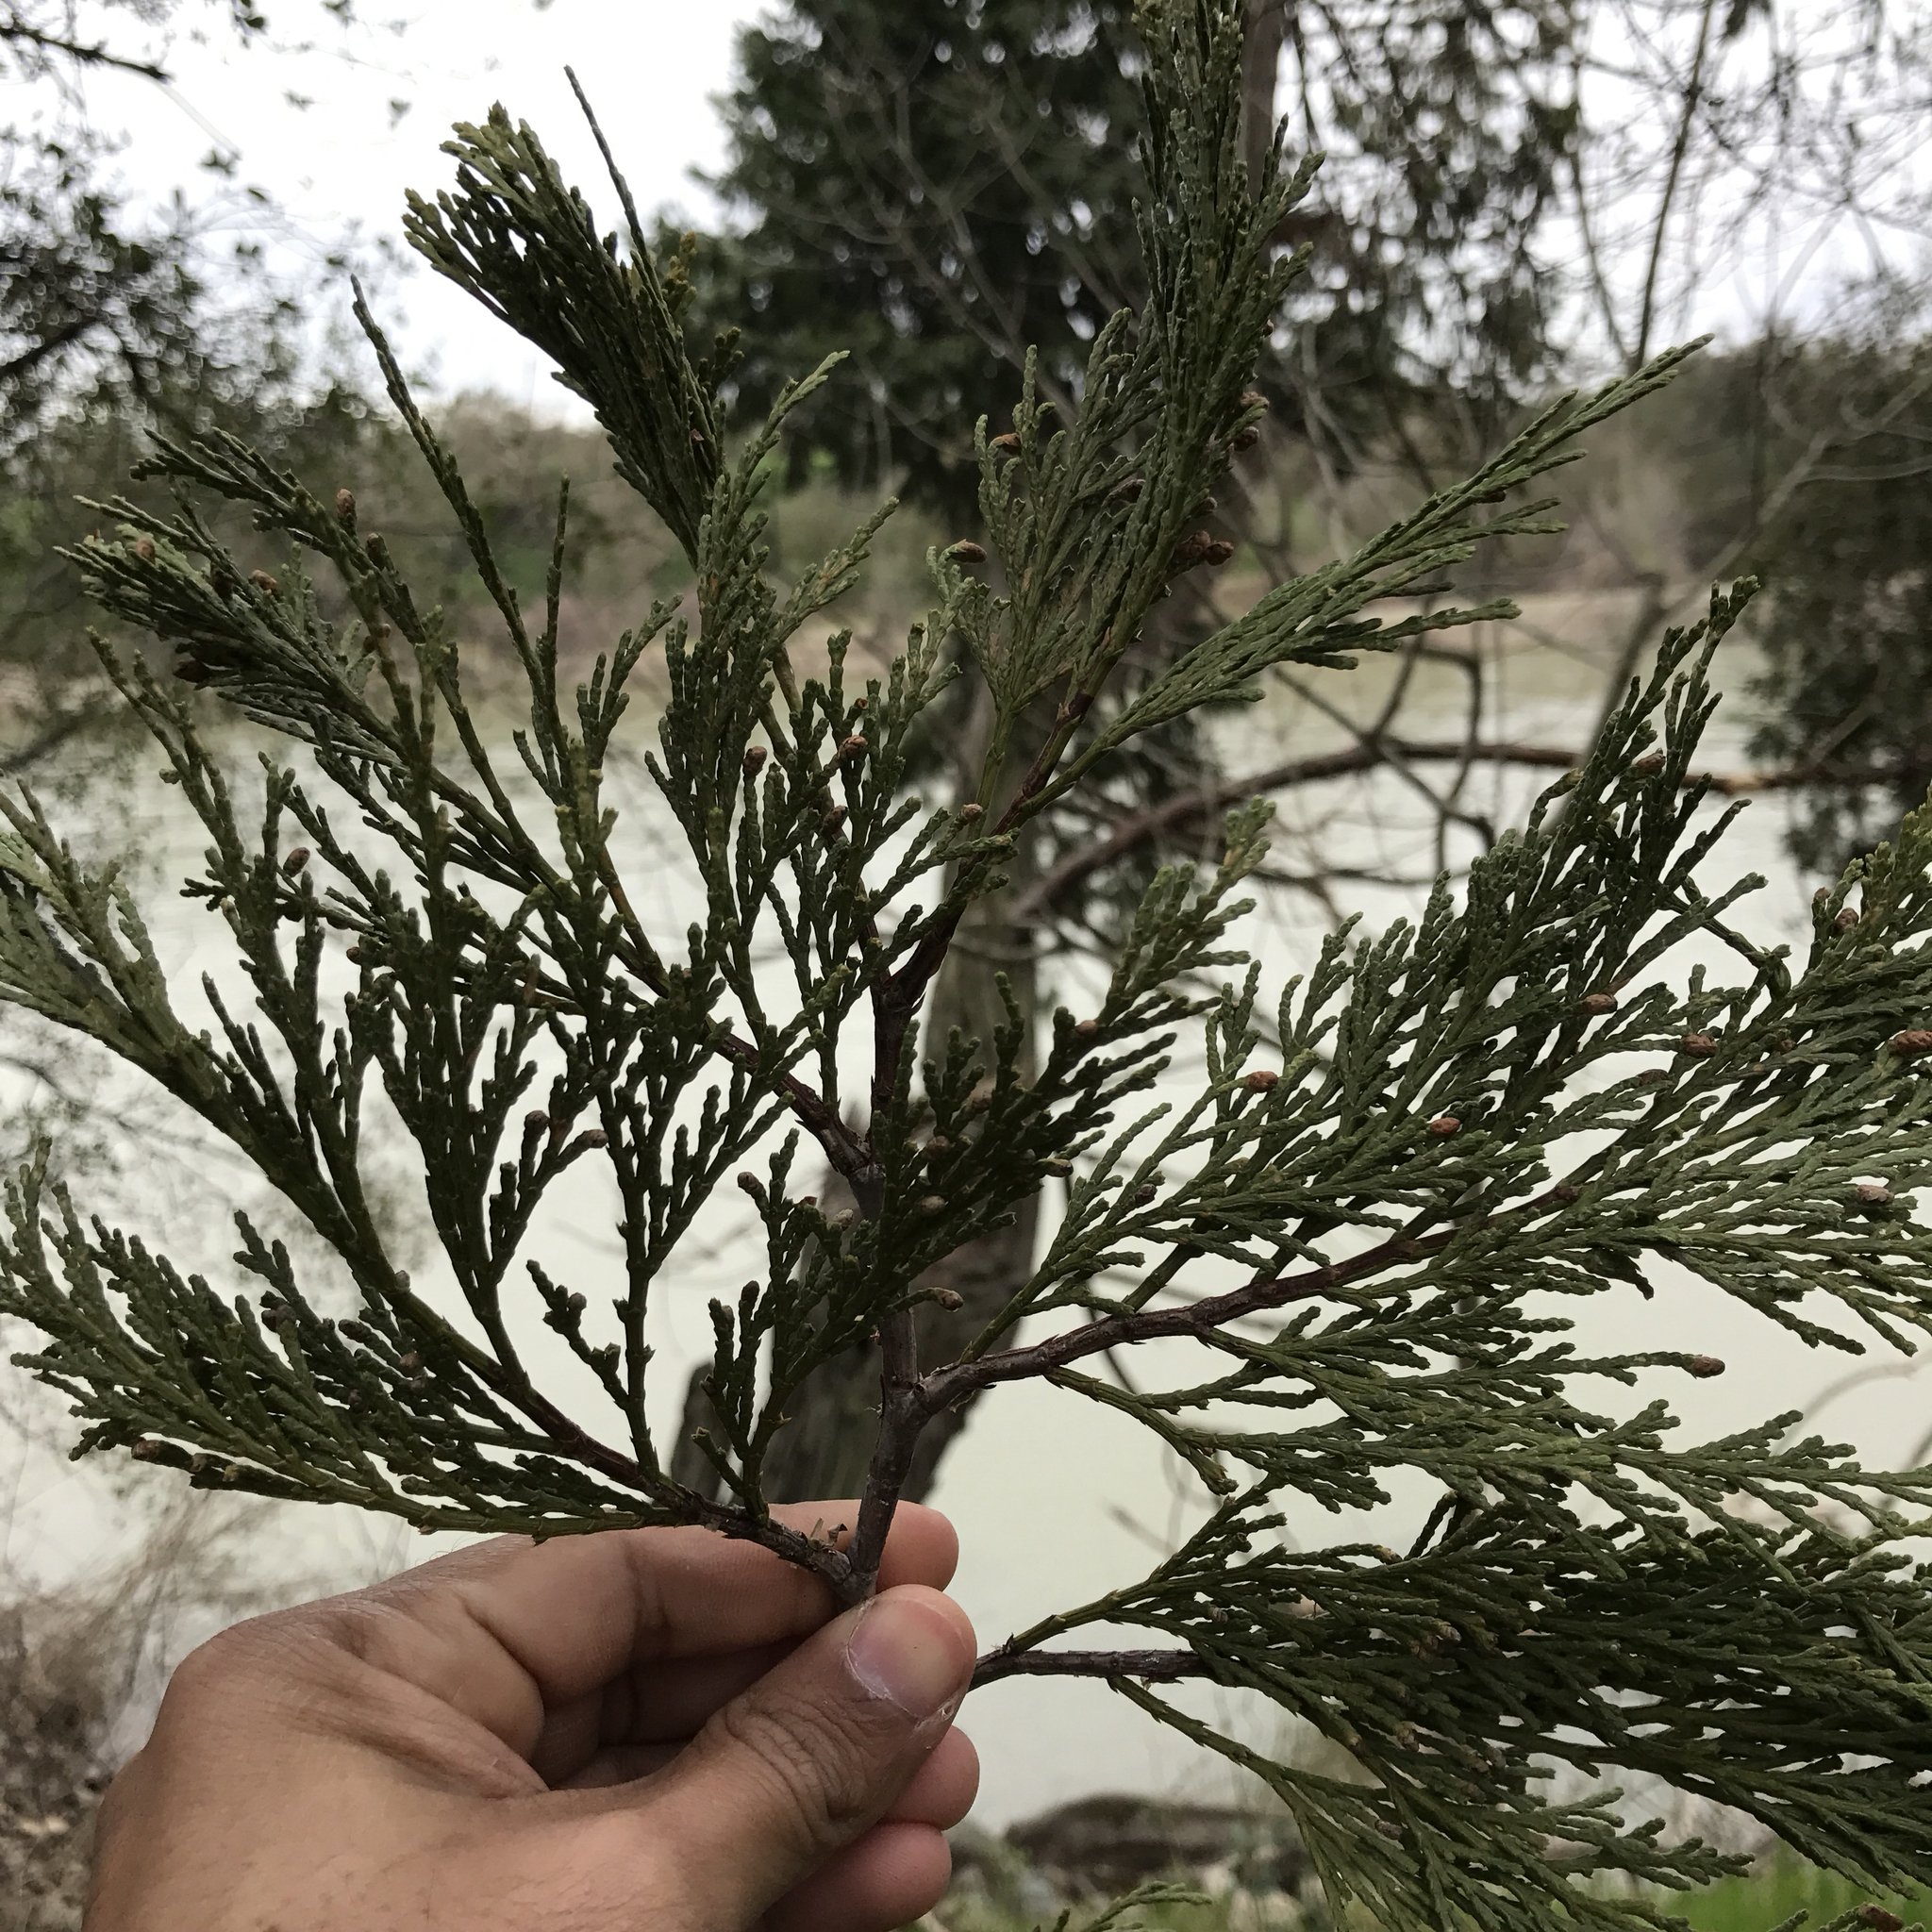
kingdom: Plantae
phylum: Tracheophyta
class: Pinopsida
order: Pinales
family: Cupressaceae
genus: Calocedrus
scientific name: Calocedrus decurrens
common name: Californian incense-cedar
